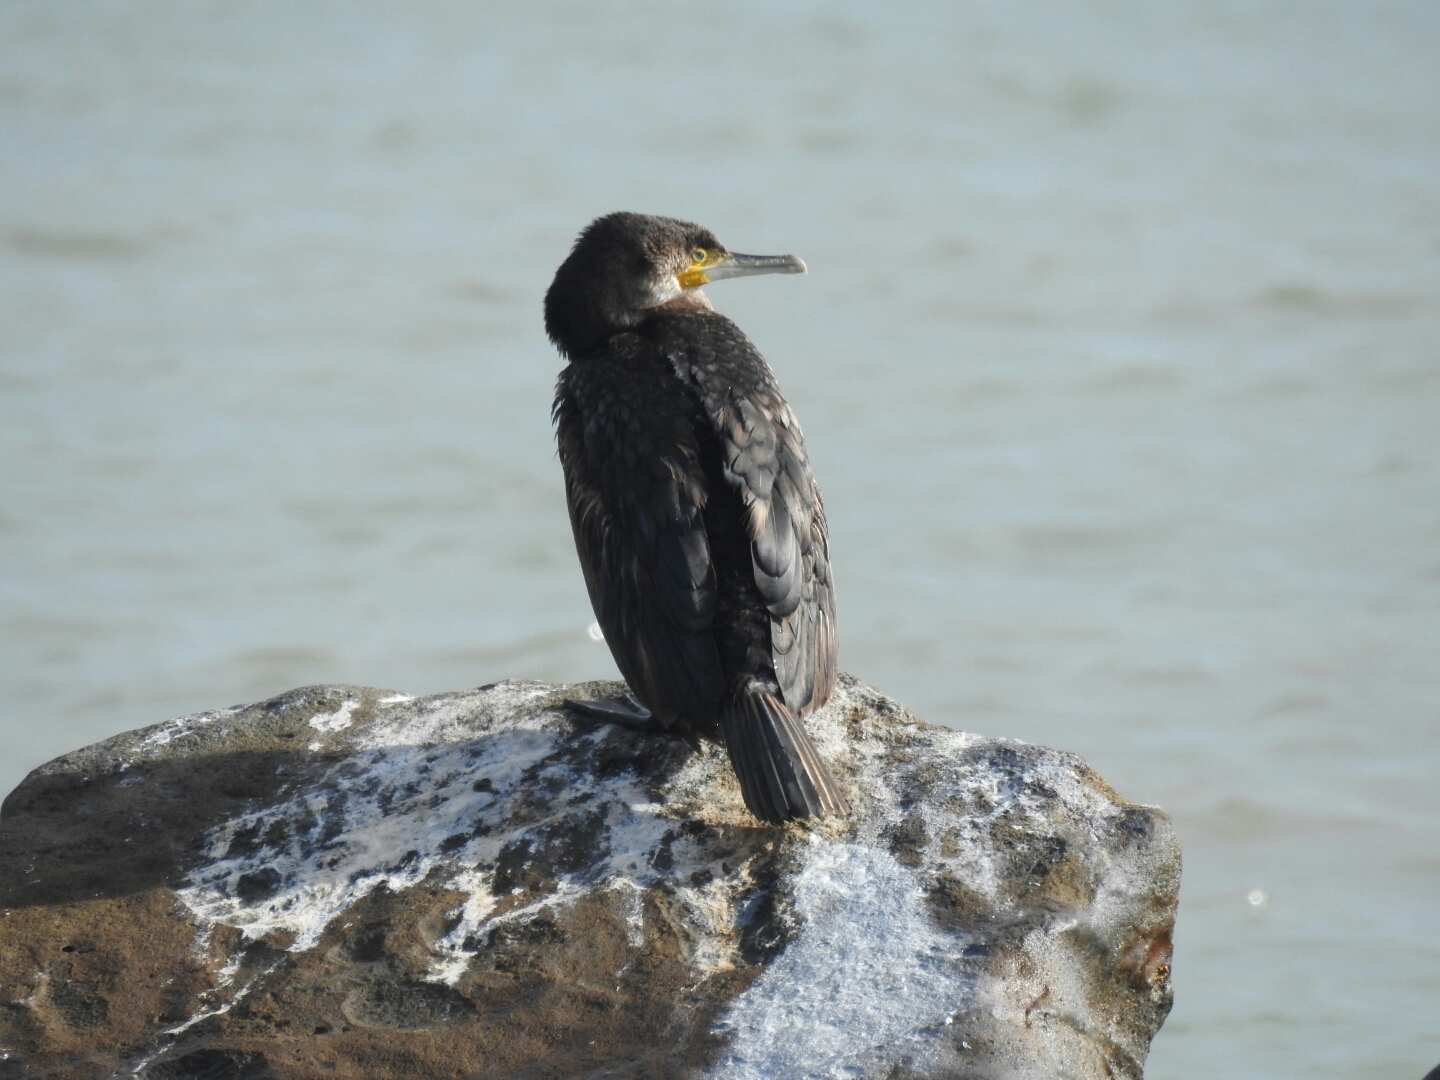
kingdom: Animalia
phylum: Chordata
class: Aves
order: Suliformes
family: Phalacrocoracidae
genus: Phalacrocorax
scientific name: Phalacrocorax carbo
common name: Great cormorant
